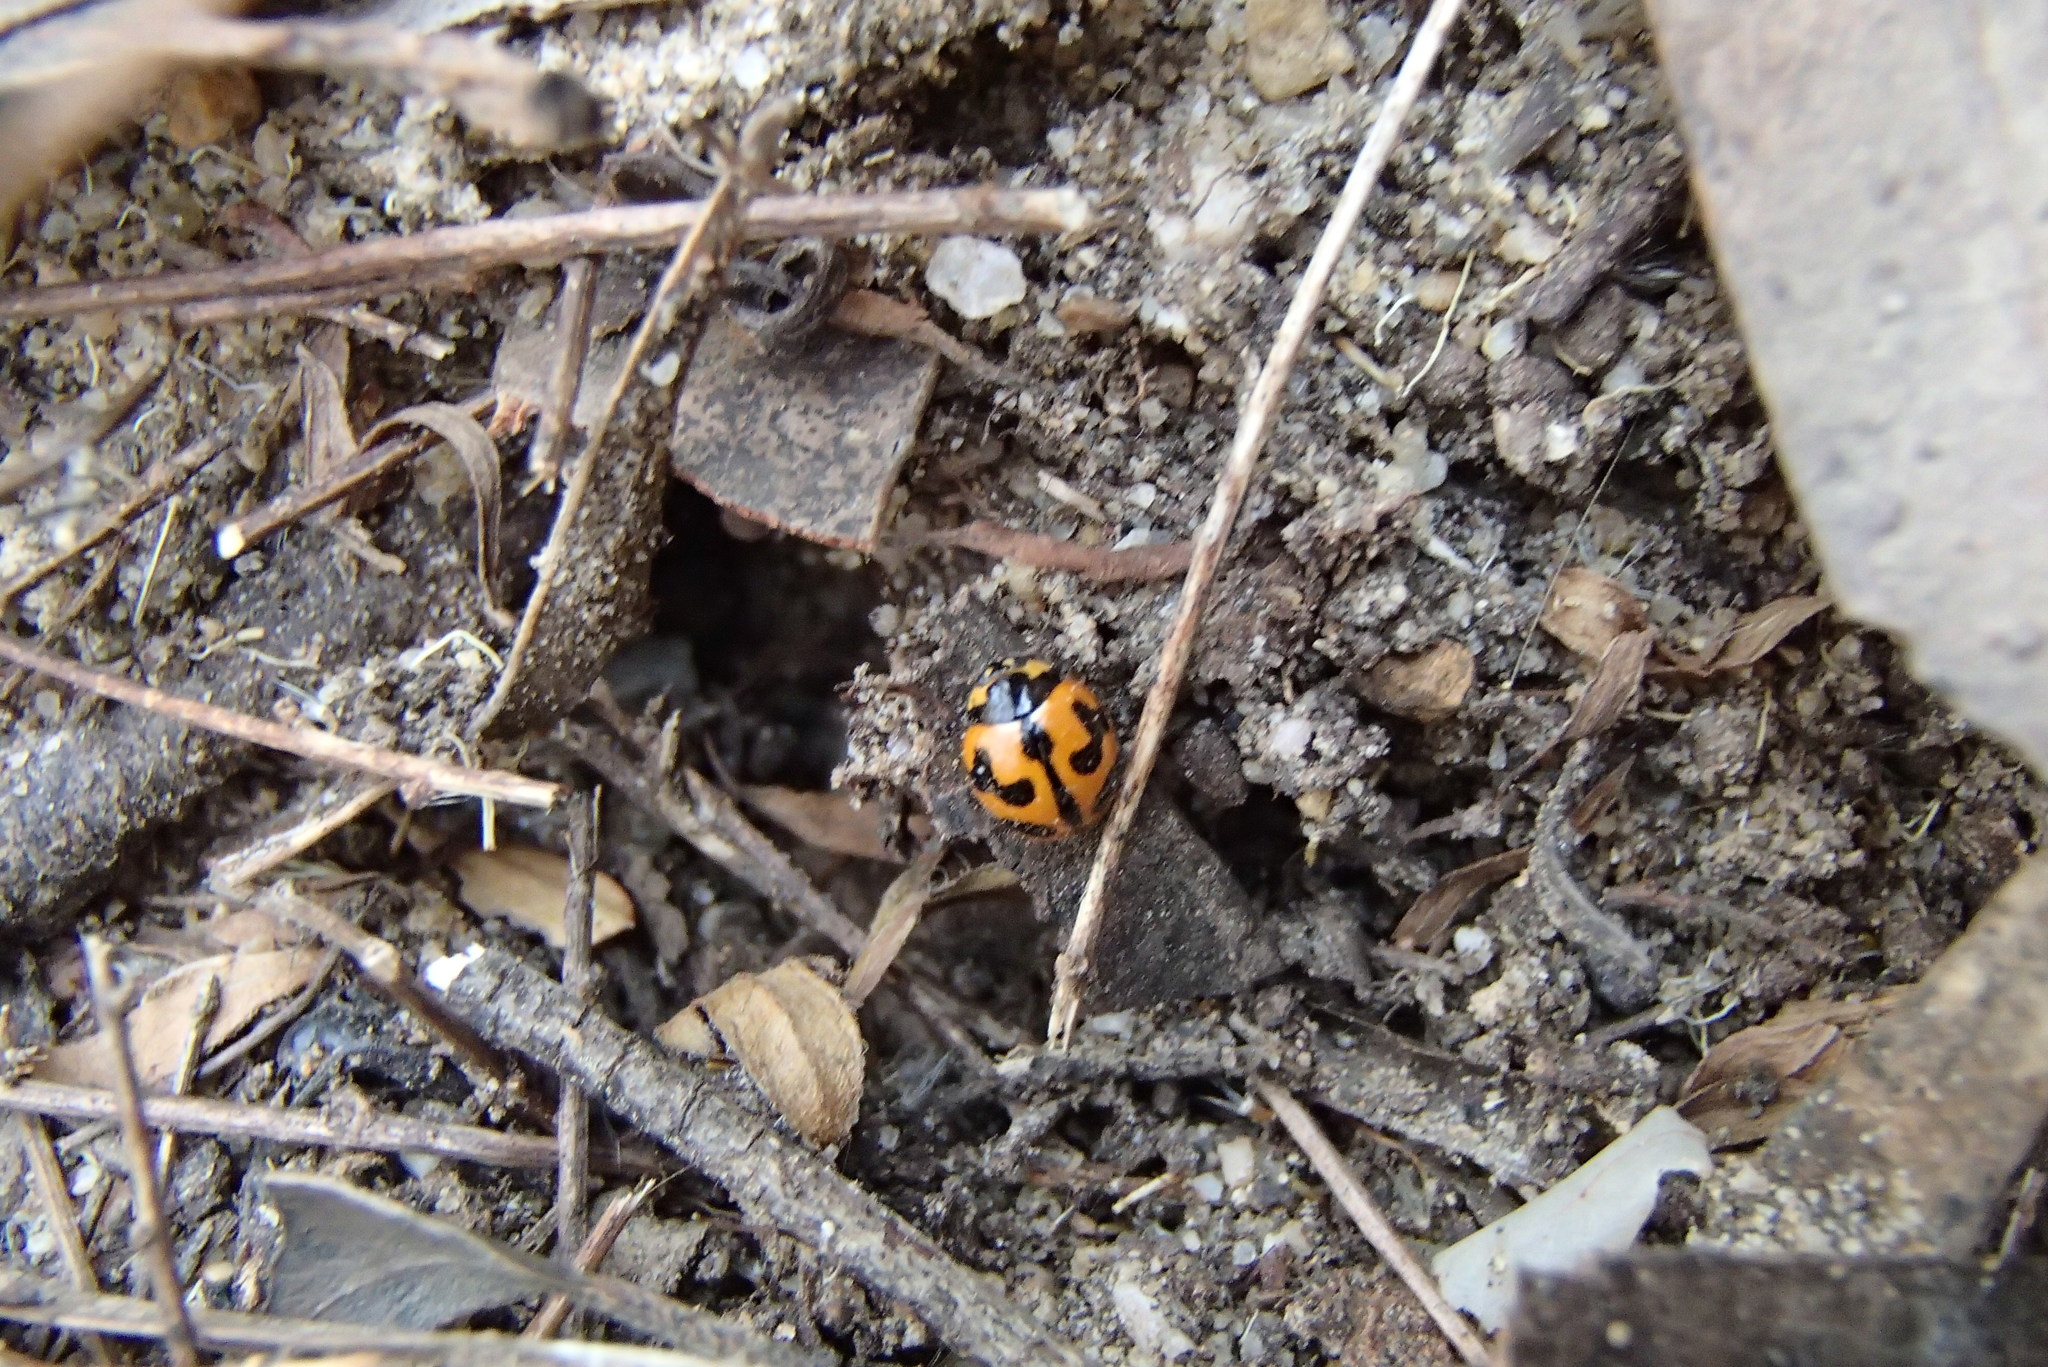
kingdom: Animalia
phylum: Arthropoda
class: Insecta
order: Coleoptera
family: Coccinellidae
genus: Coccinella
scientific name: Coccinella transversalis
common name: Transverse lady beetle
